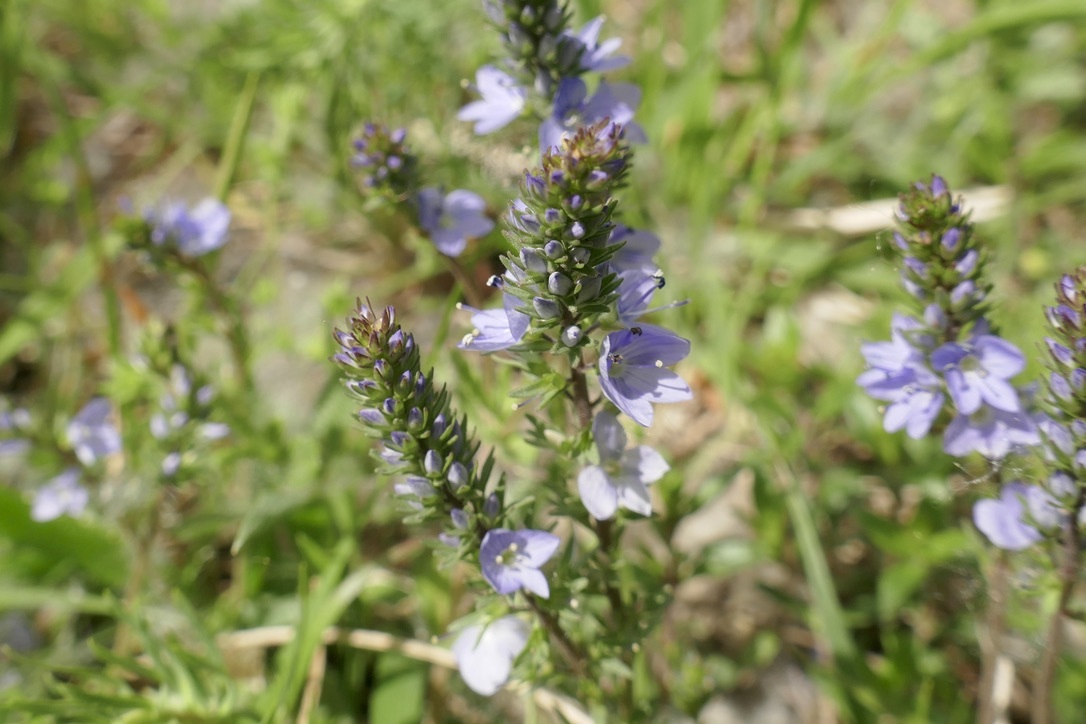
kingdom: Plantae
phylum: Tracheophyta
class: Magnoliopsida
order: Lamiales
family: Plantaginaceae
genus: Veronica
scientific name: Veronica prostrata
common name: Prostrate speedwell
